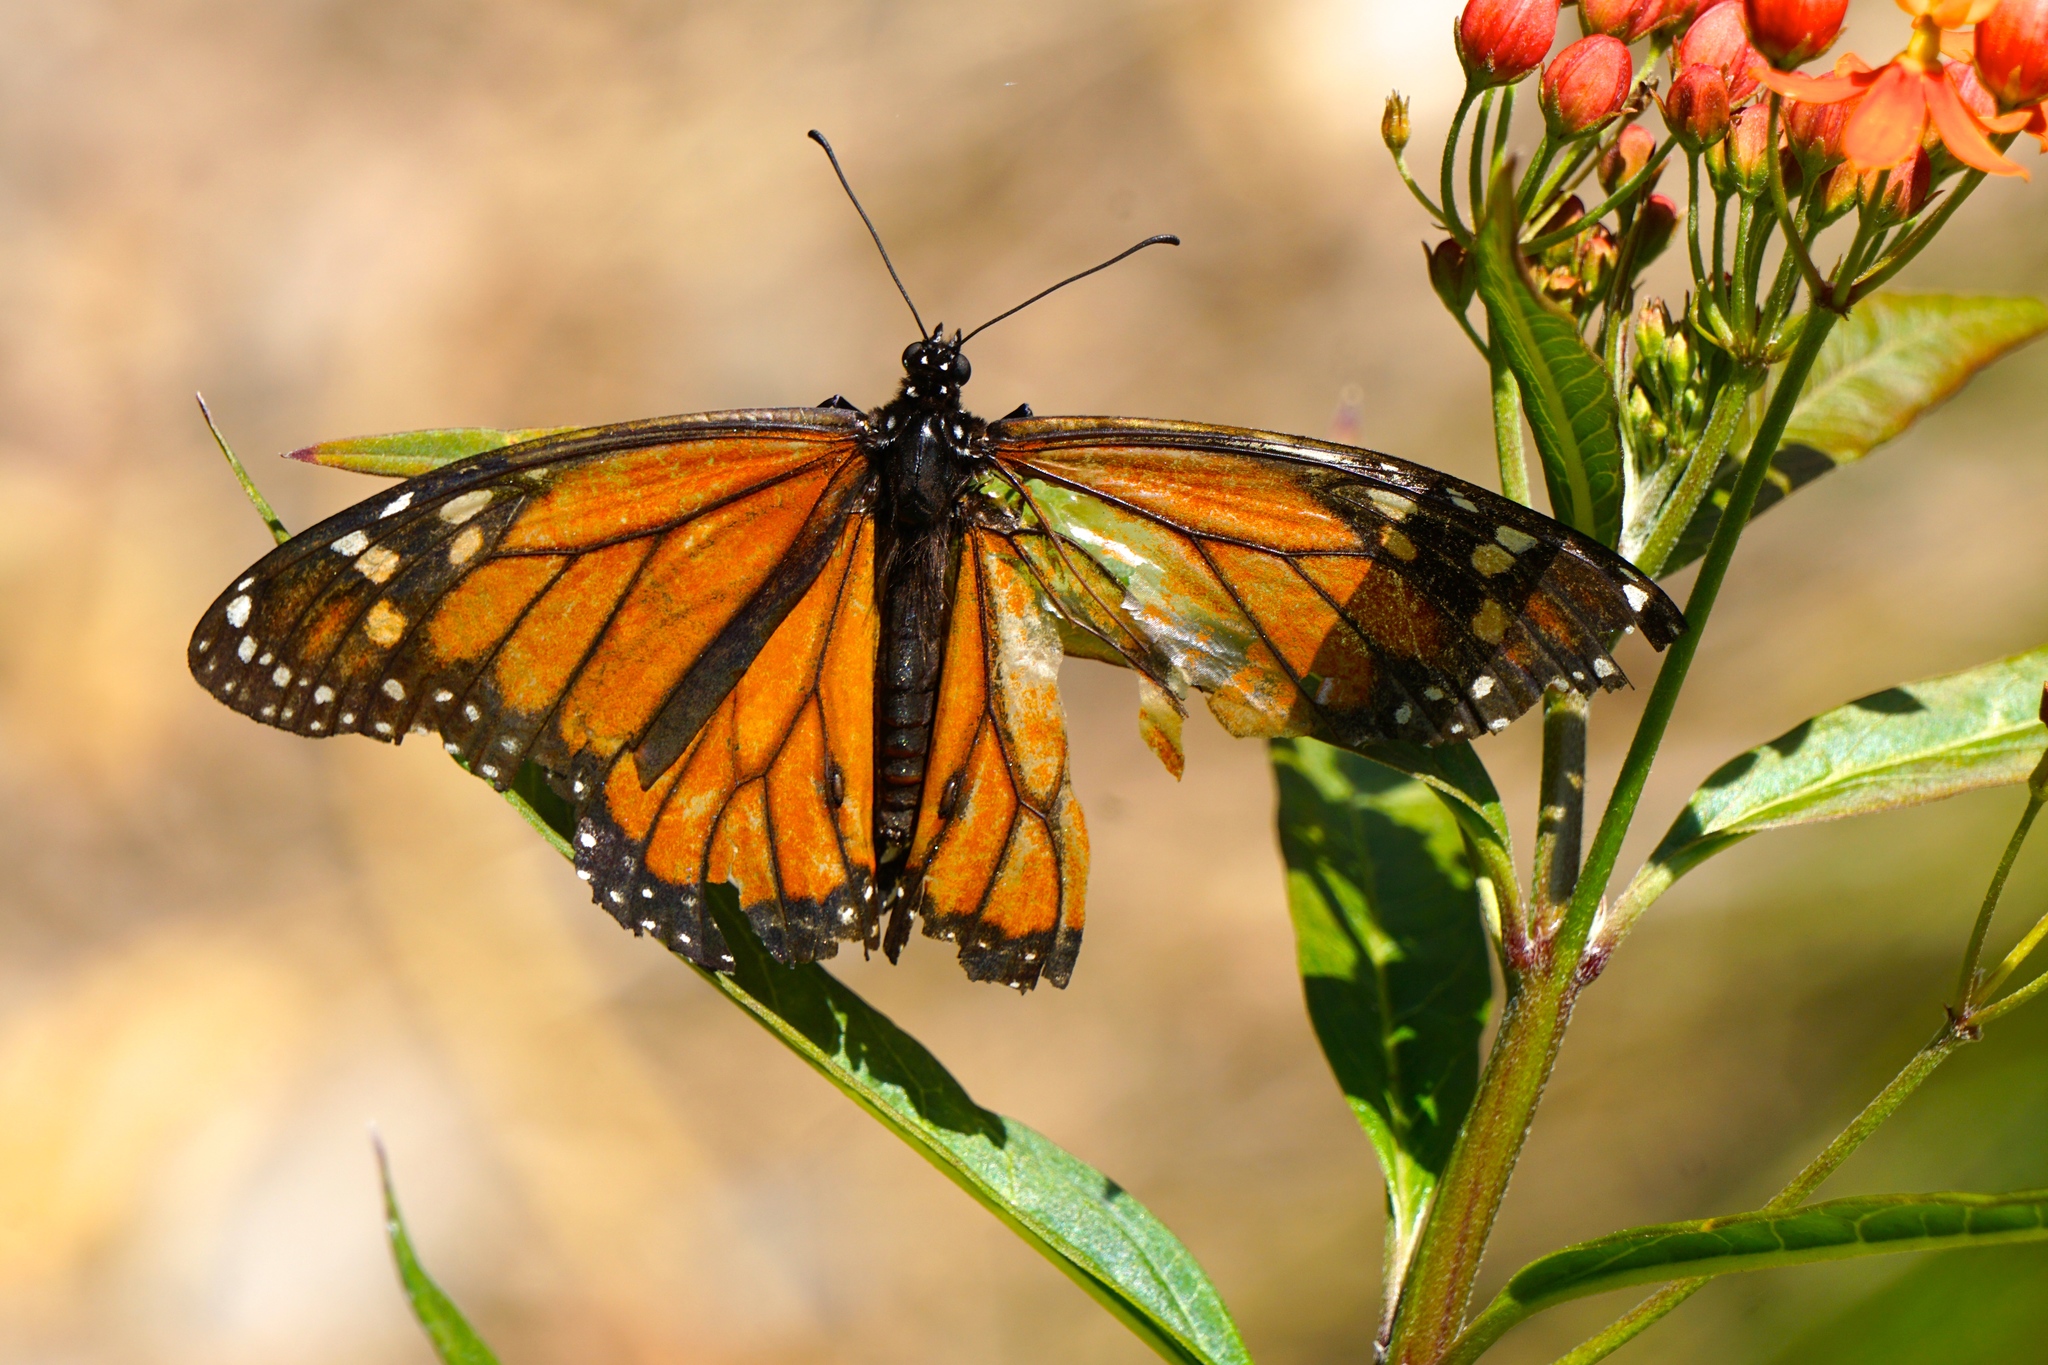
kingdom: Animalia
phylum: Arthropoda
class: Insecta
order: Lepidoptera
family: Nymphalidae
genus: Danaus
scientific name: Danaus plexippus
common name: Monarch
